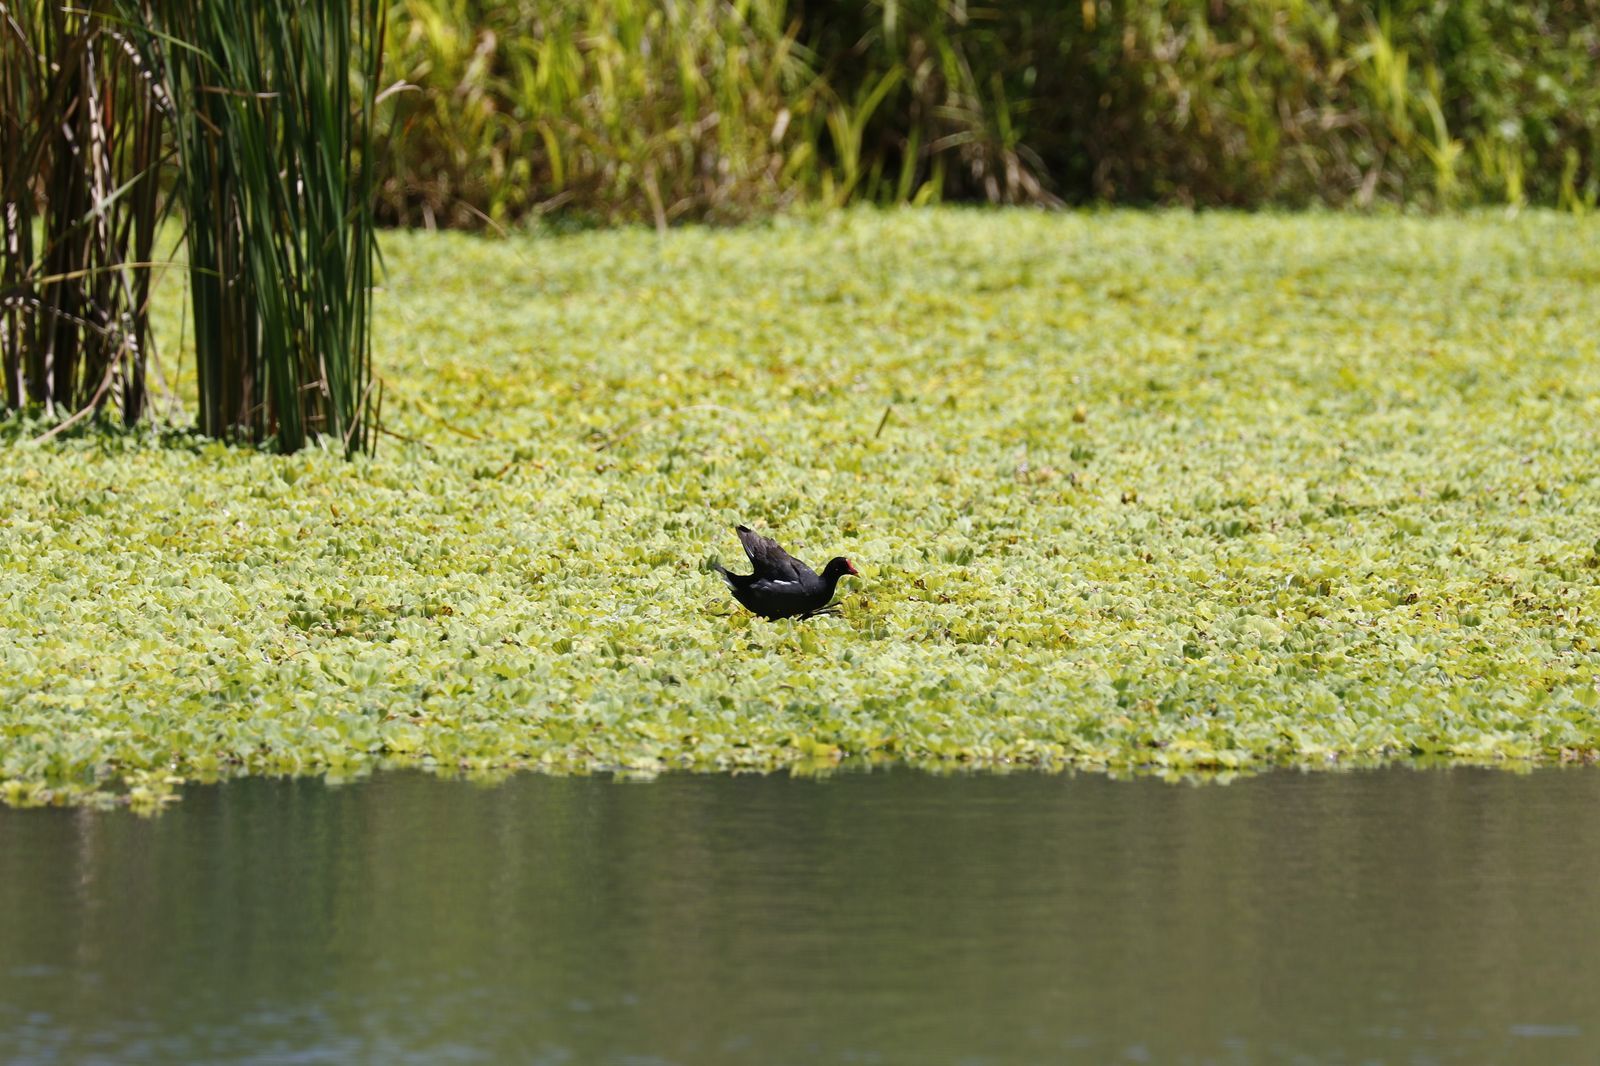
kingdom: Animalia
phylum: Chordata
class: Aves
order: Gruiformes
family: Rallidae
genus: Gallinula
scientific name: Gallinula chloropus
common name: Common moorhen
